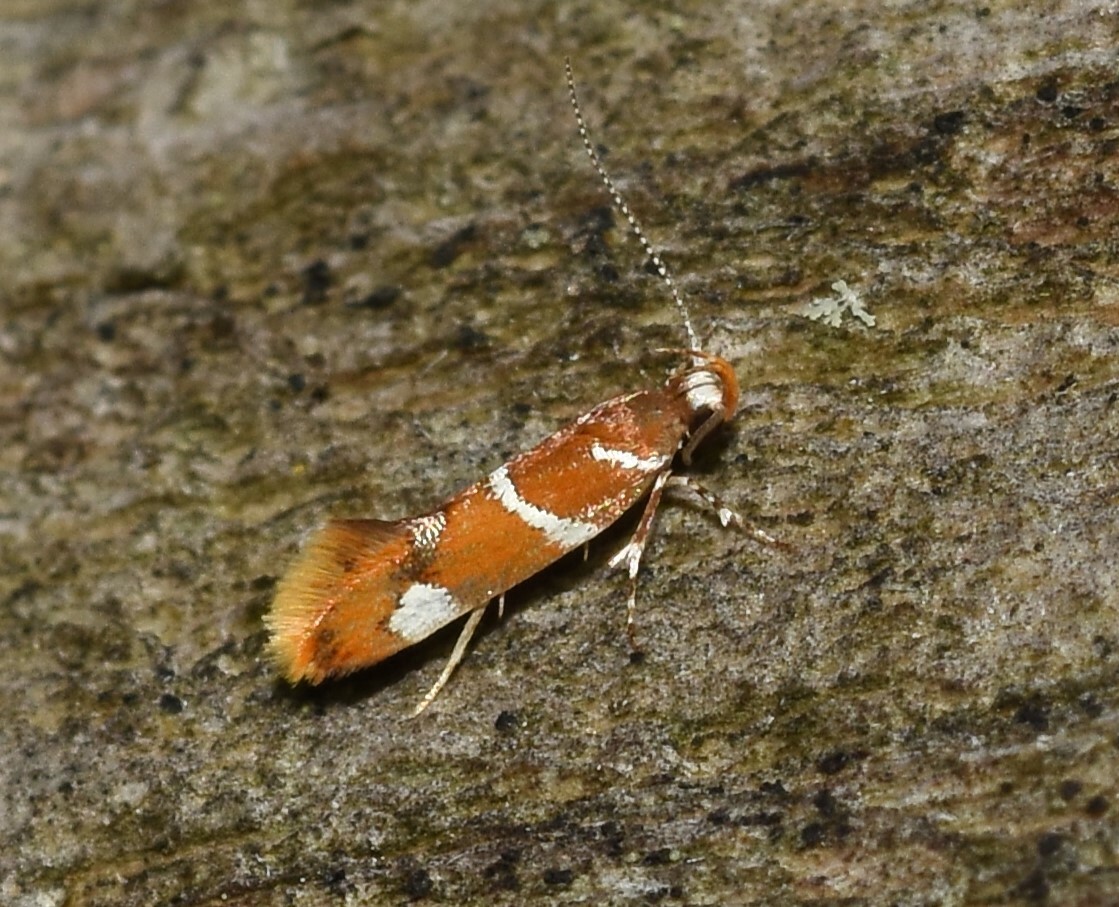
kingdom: Animalia
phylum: Arthropoda
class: Insecta
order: Lepidoptera
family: Oecophoridae
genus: Promalactis
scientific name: Promalactis suzukiella
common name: Moth
